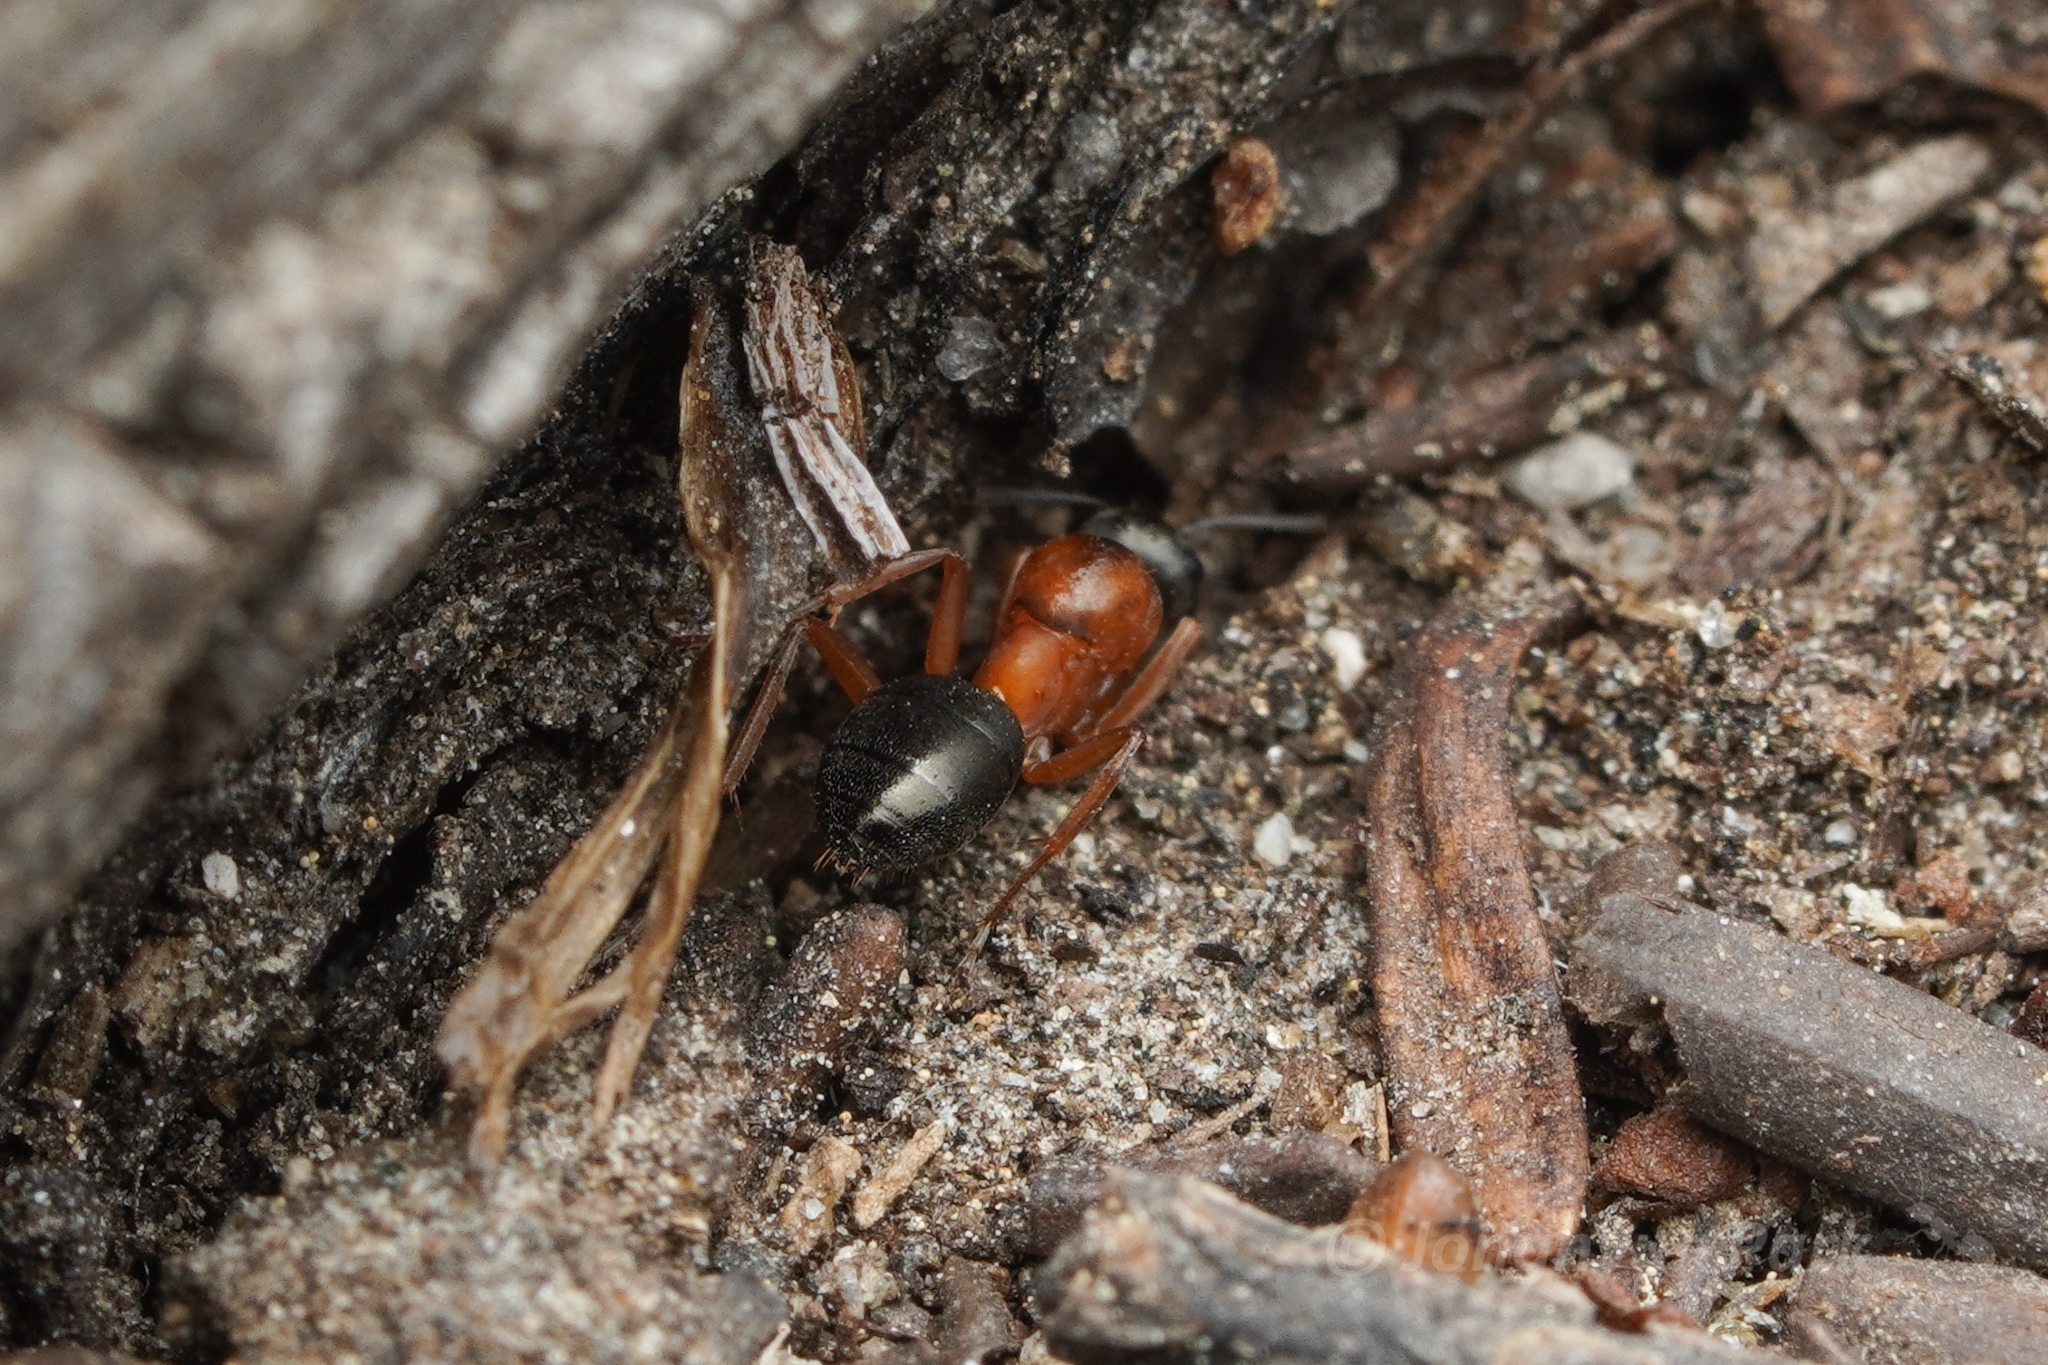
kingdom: Animalia
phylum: Arthropoda
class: Insecta
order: Hymenoptera
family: Formicidae
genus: Formica
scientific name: Formica neorufibarbis
